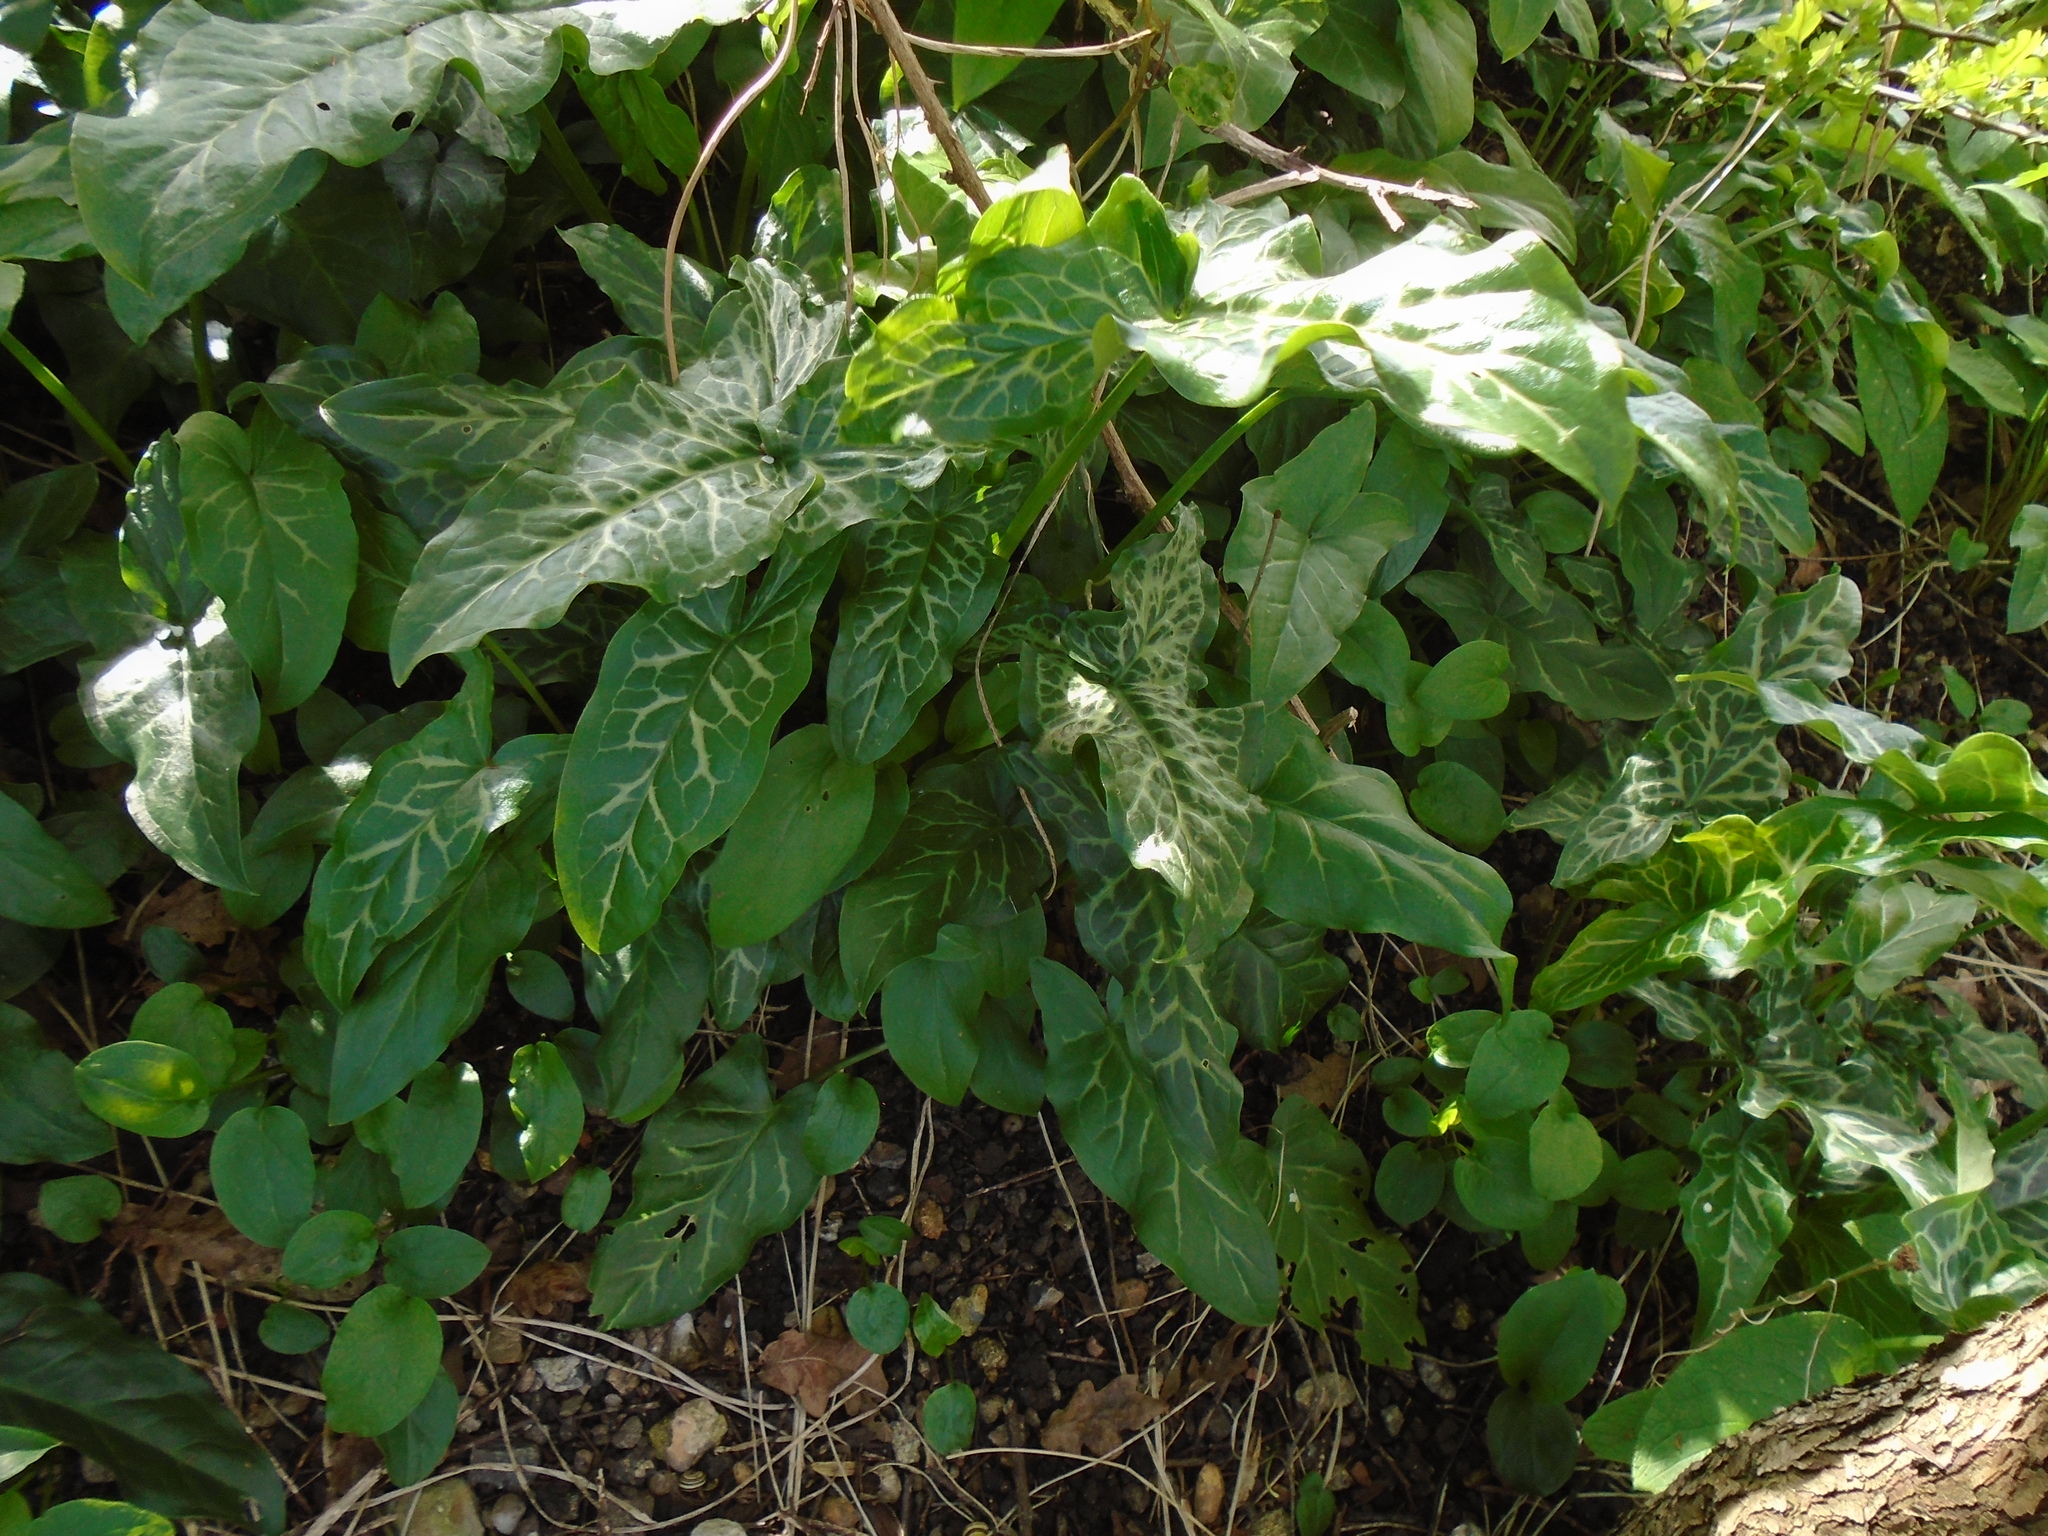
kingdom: Plantae
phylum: Tracheophyta
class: Liliopsida
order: Alismatales
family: Araceae
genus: Arum
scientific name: Arum italicum
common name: Italian lords-and-ladies
